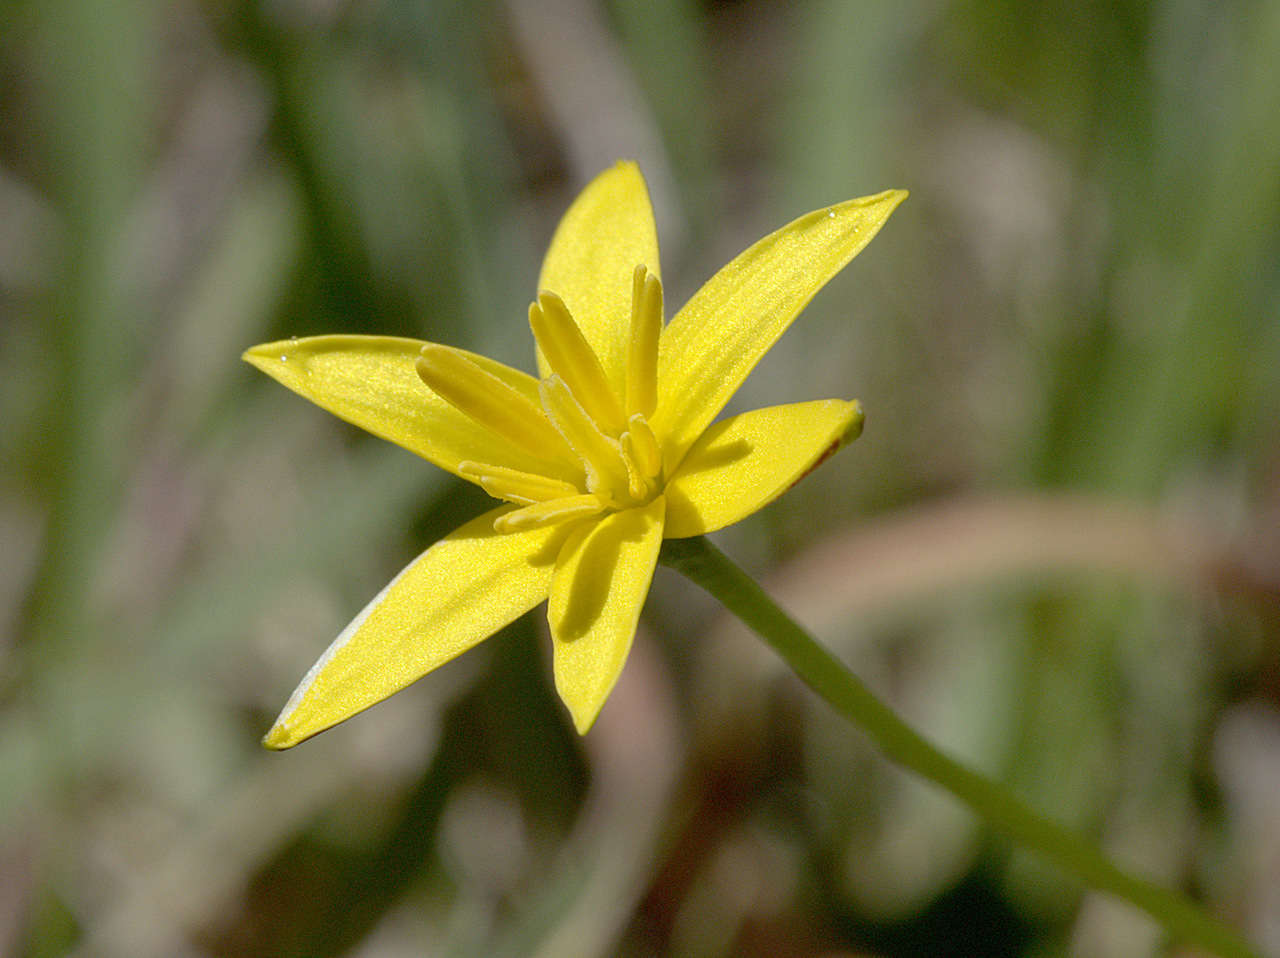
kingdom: Plantae
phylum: Tracheophyta
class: Liliopsida
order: Asparagales
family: Hypoxidaceae
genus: Pauridia
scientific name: Pauridia vaginata
